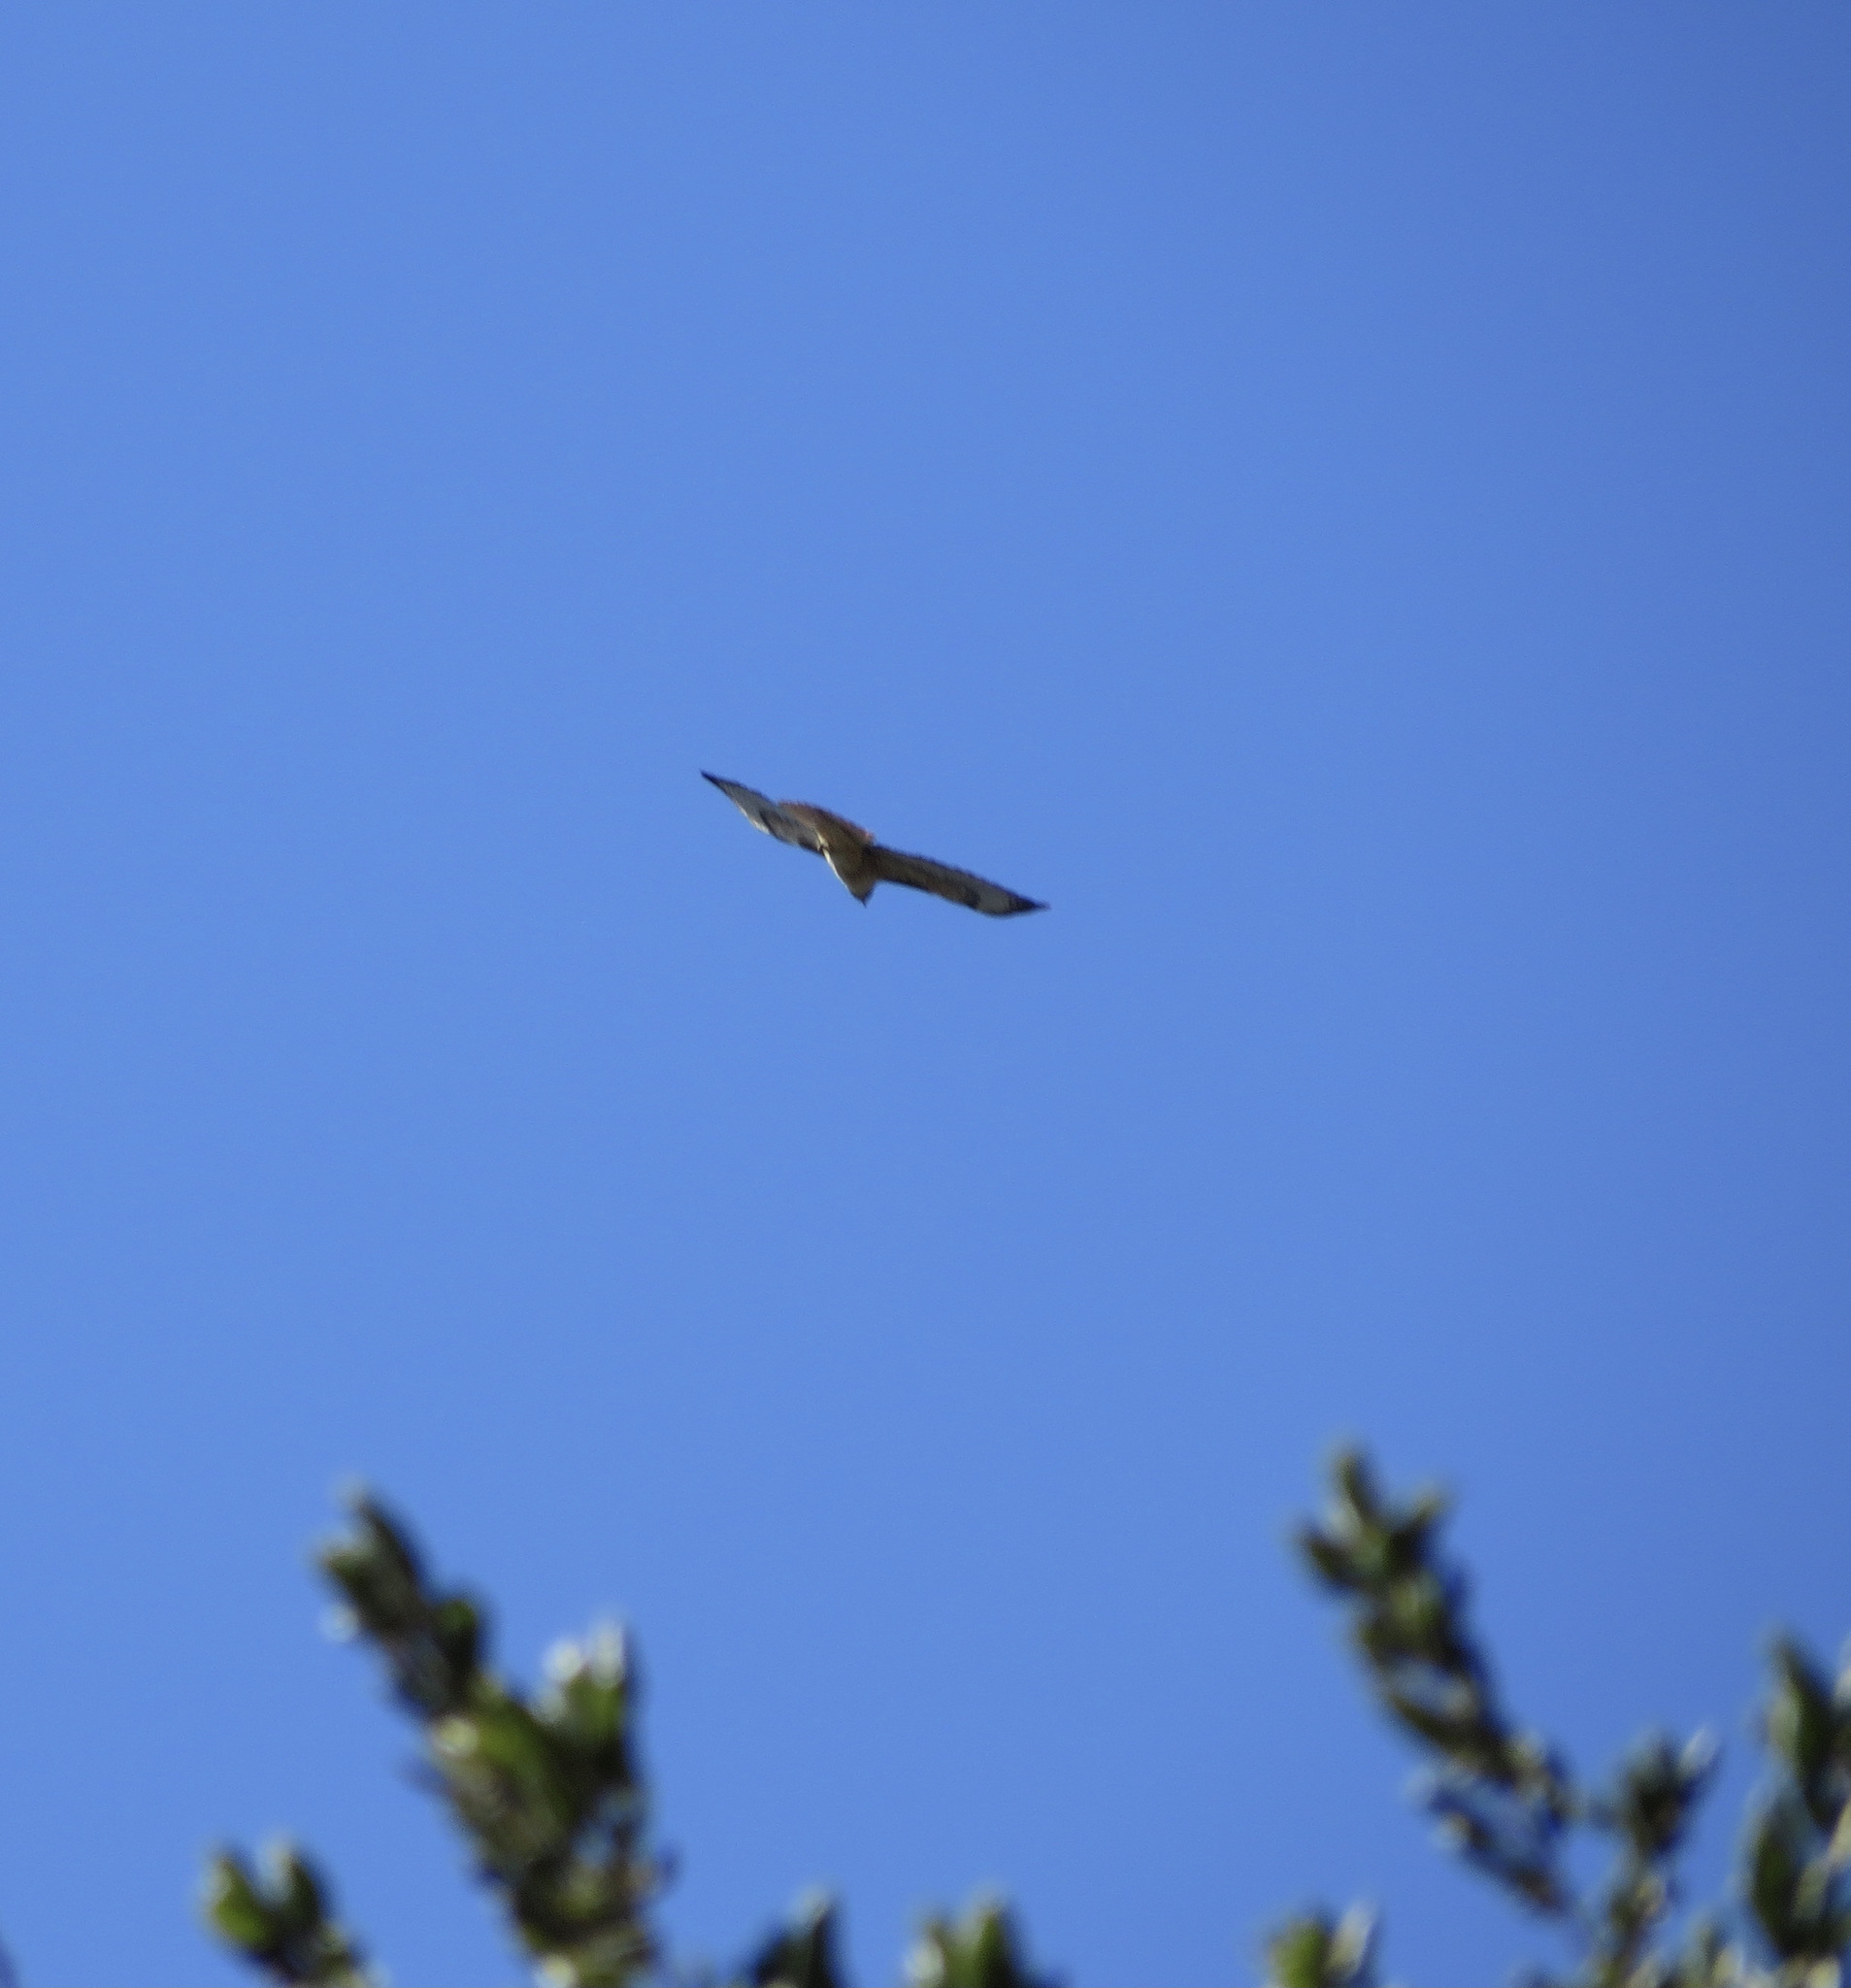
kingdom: Animalia
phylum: Chordata
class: Aves
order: Accipitriformes
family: Accipitridae
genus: Buteo
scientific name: Buteo jamaicensis
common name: Red-tailed hawk
